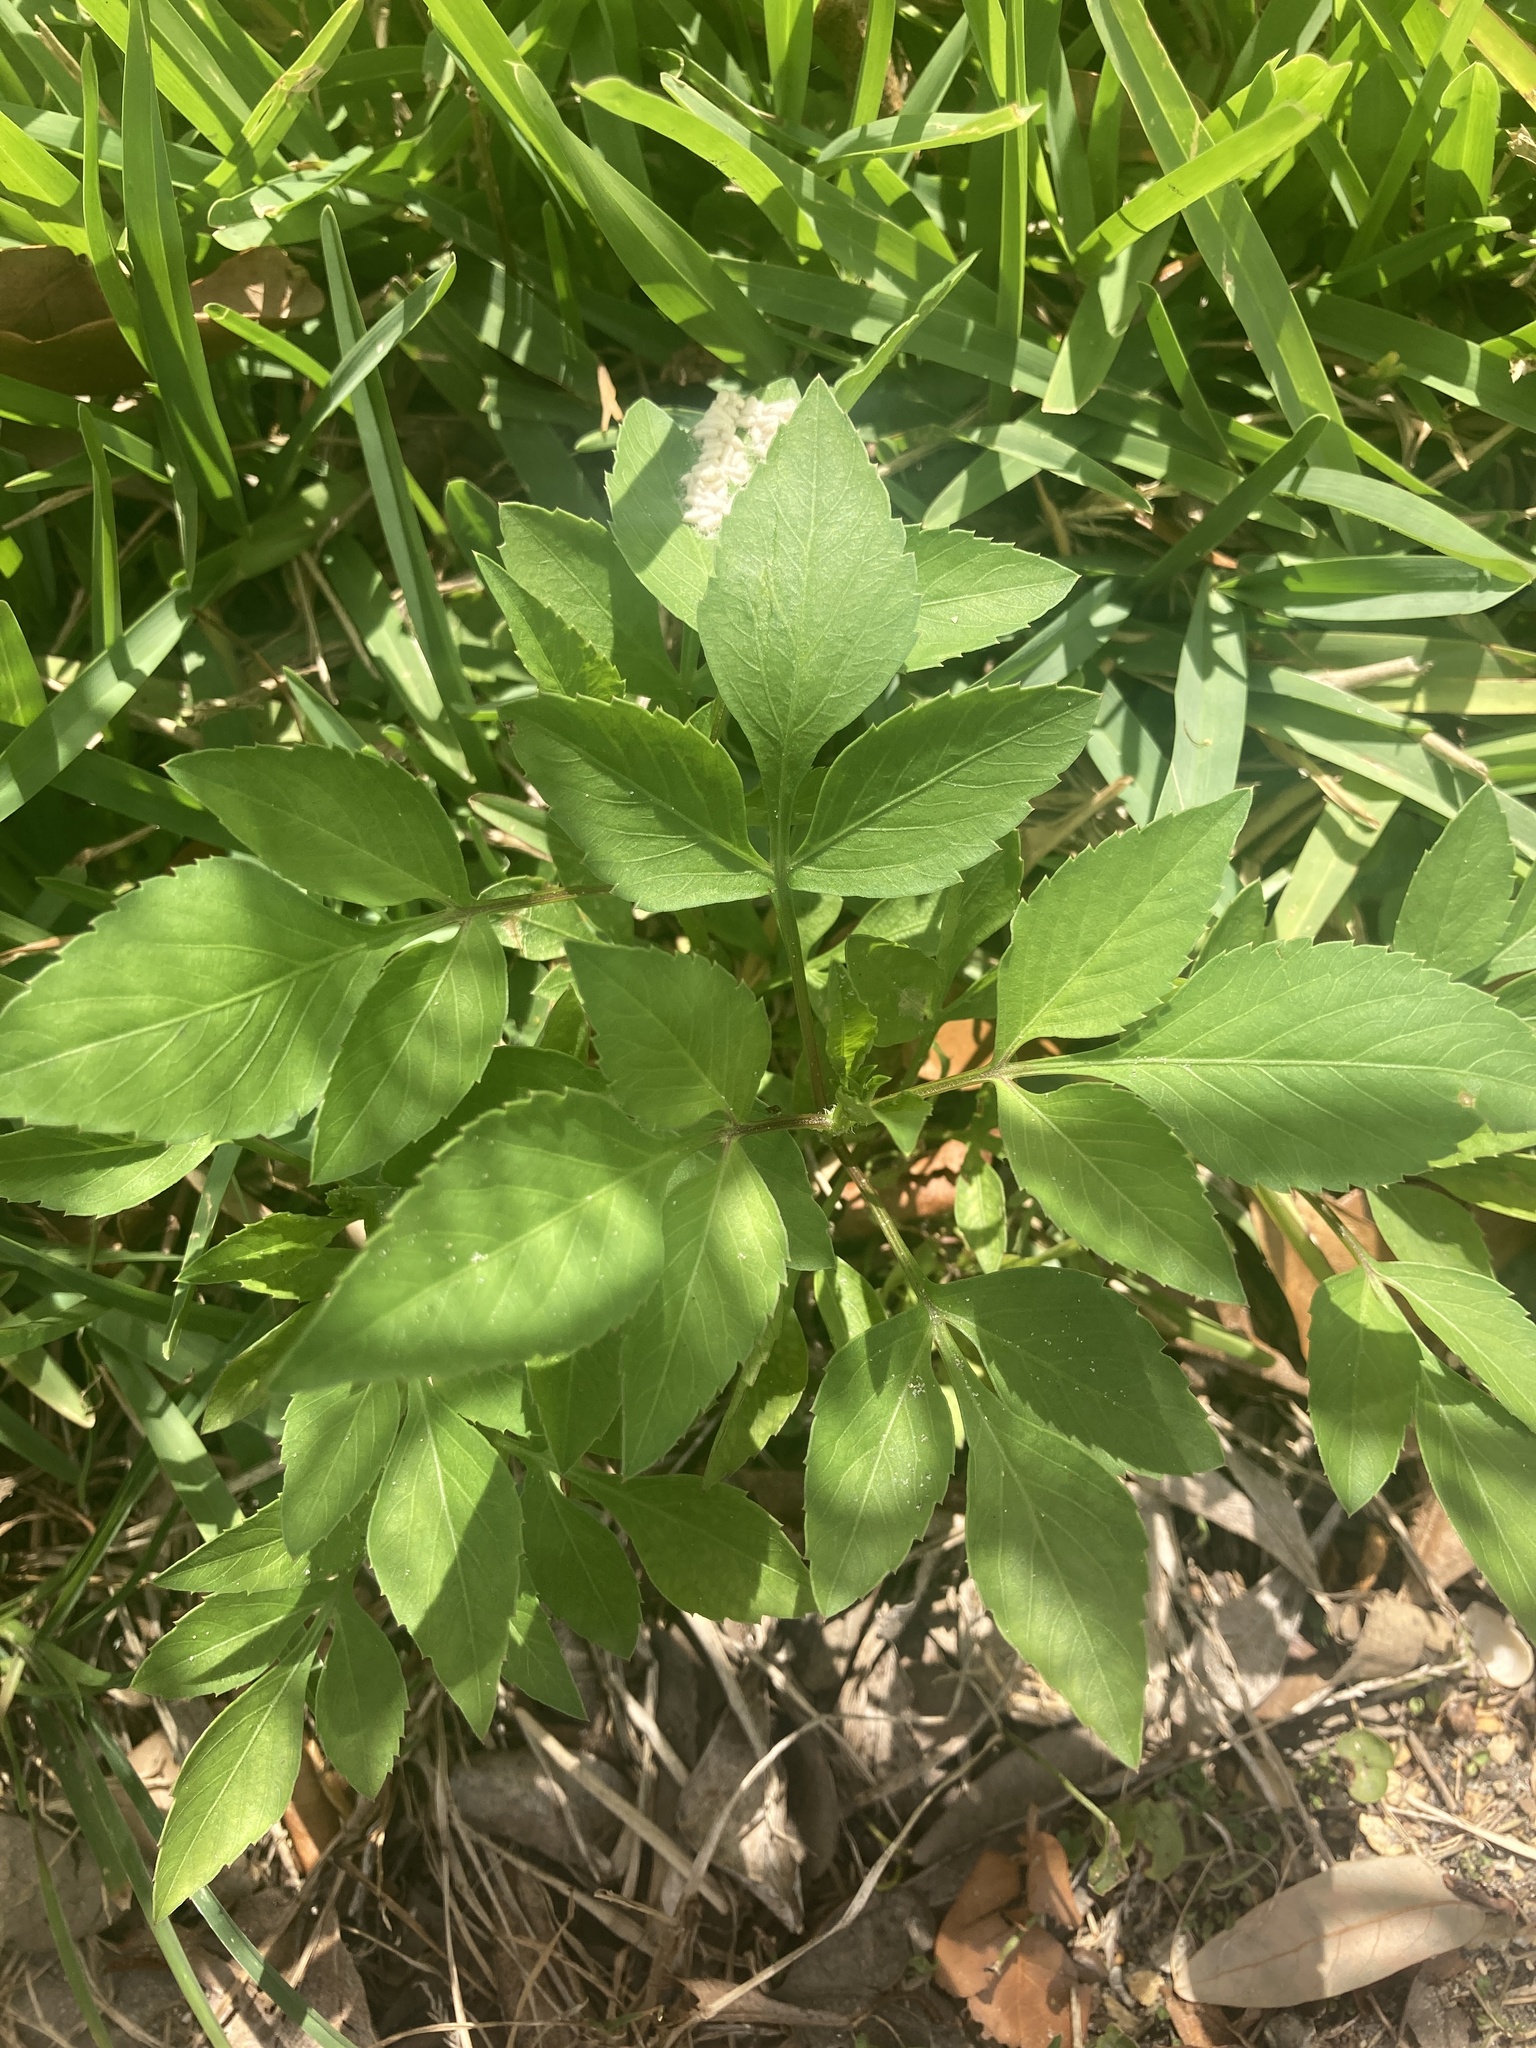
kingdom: Plantae
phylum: Tracheophyta
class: Magnoliopsida
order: Asterales
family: Asteraceae
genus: Bidens
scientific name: Bidens alba
